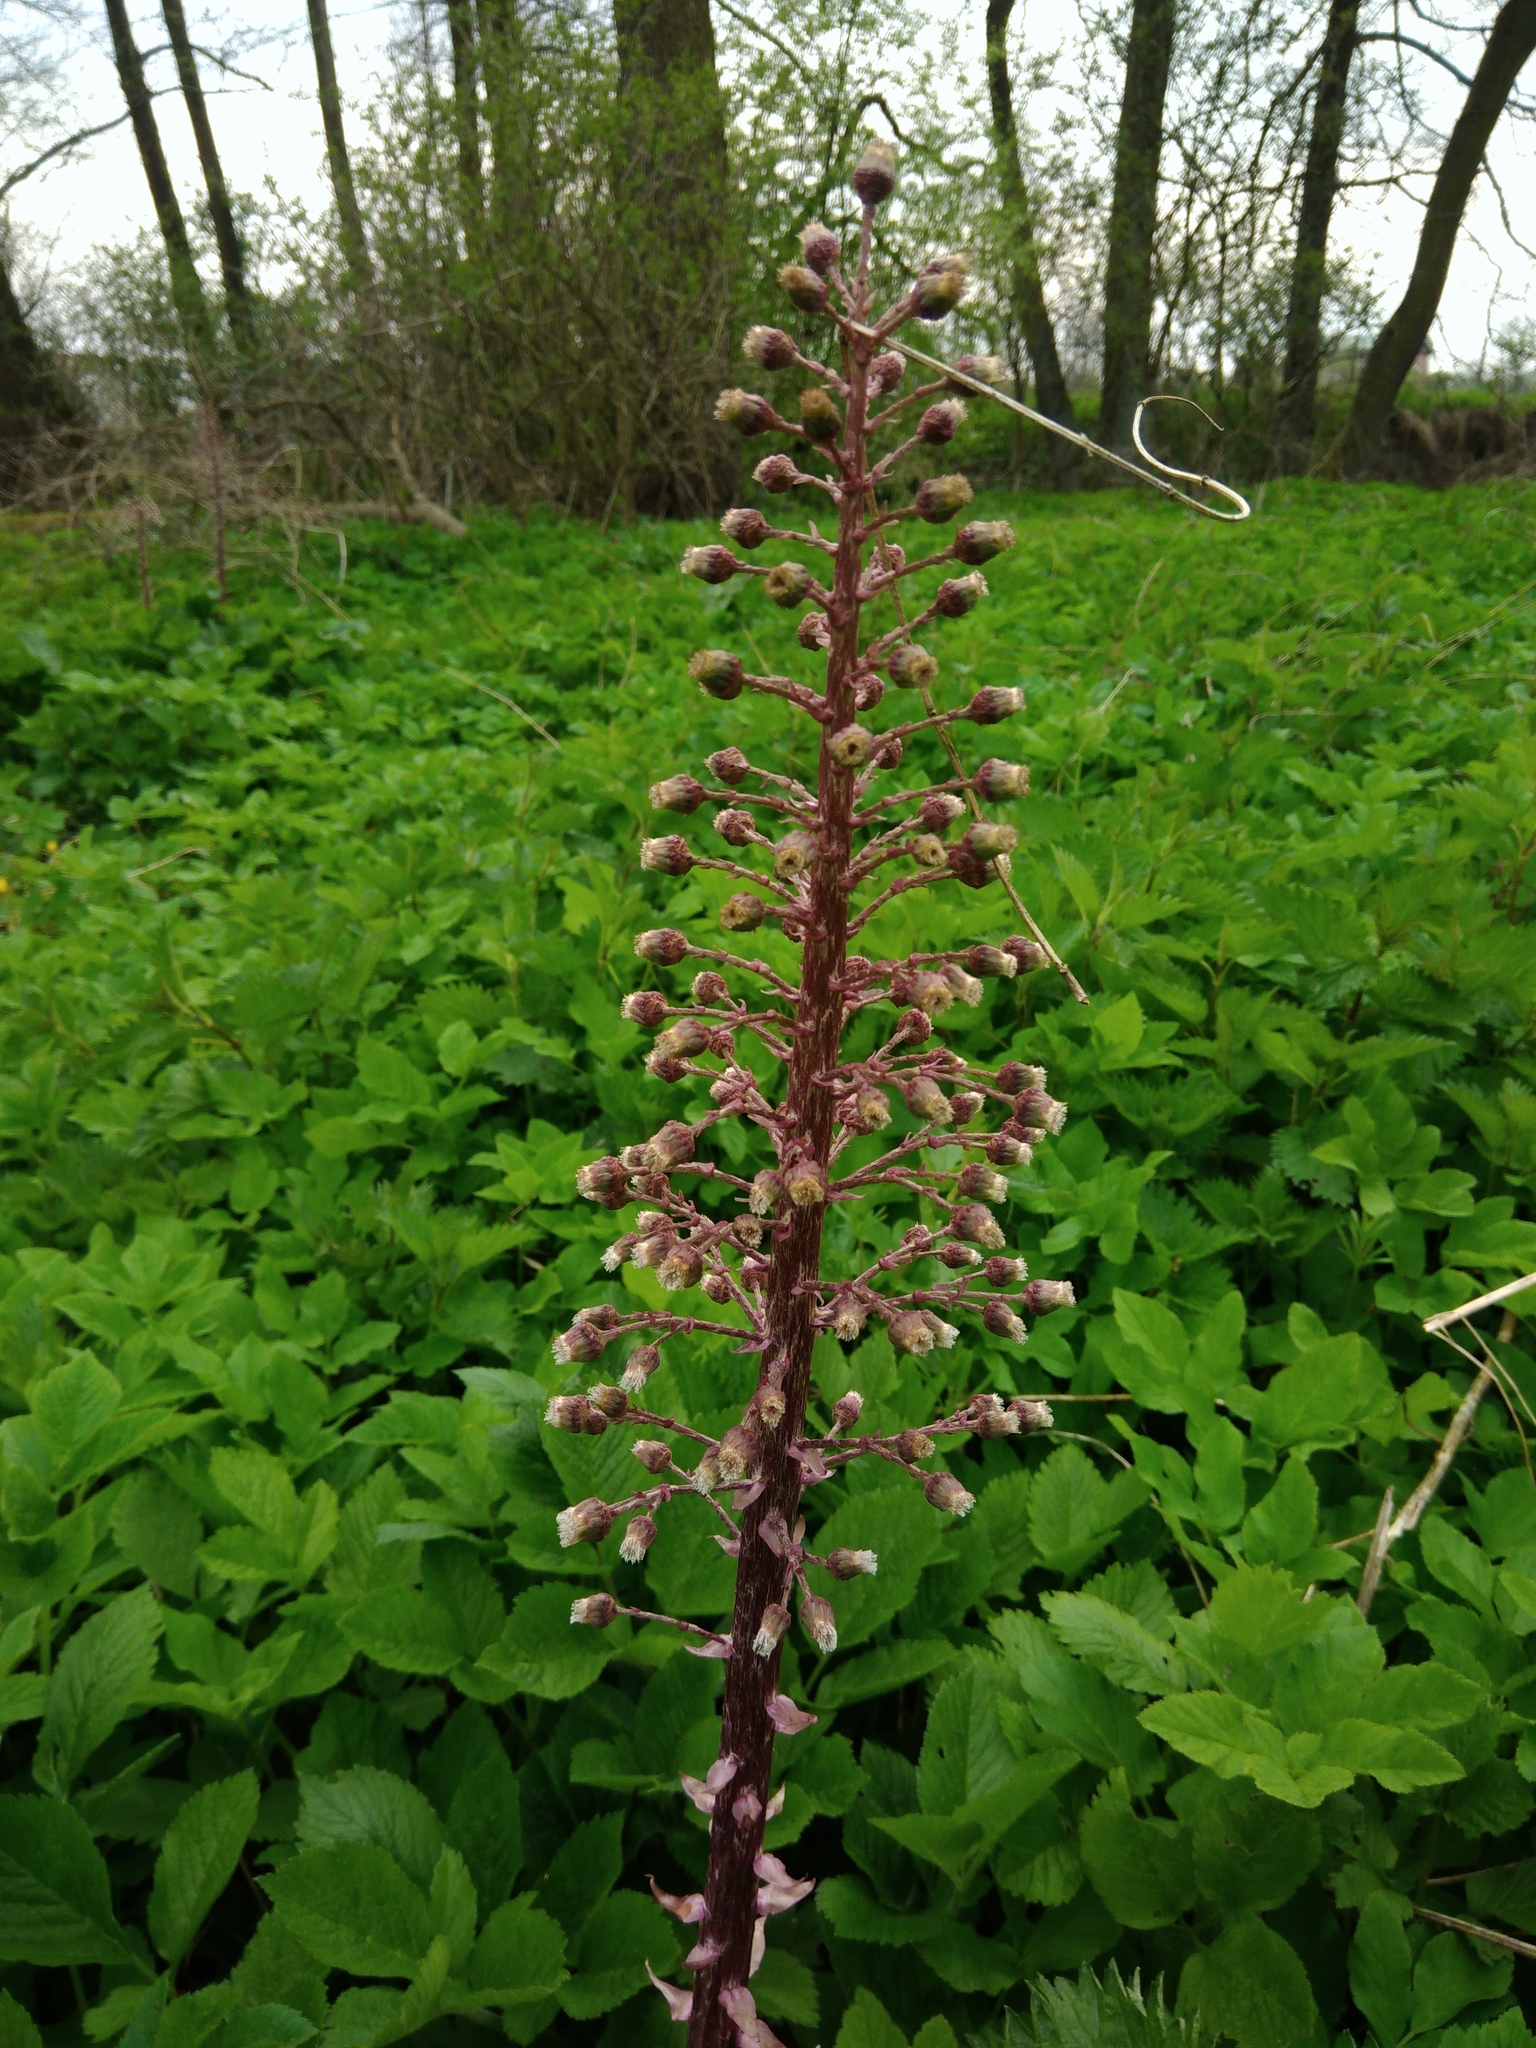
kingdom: Plantae
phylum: Tracheophyta
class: Magnoliopsida
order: Asterales
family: Asteraceae
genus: Petasites
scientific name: Petasites hybridus
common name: Butterbur
